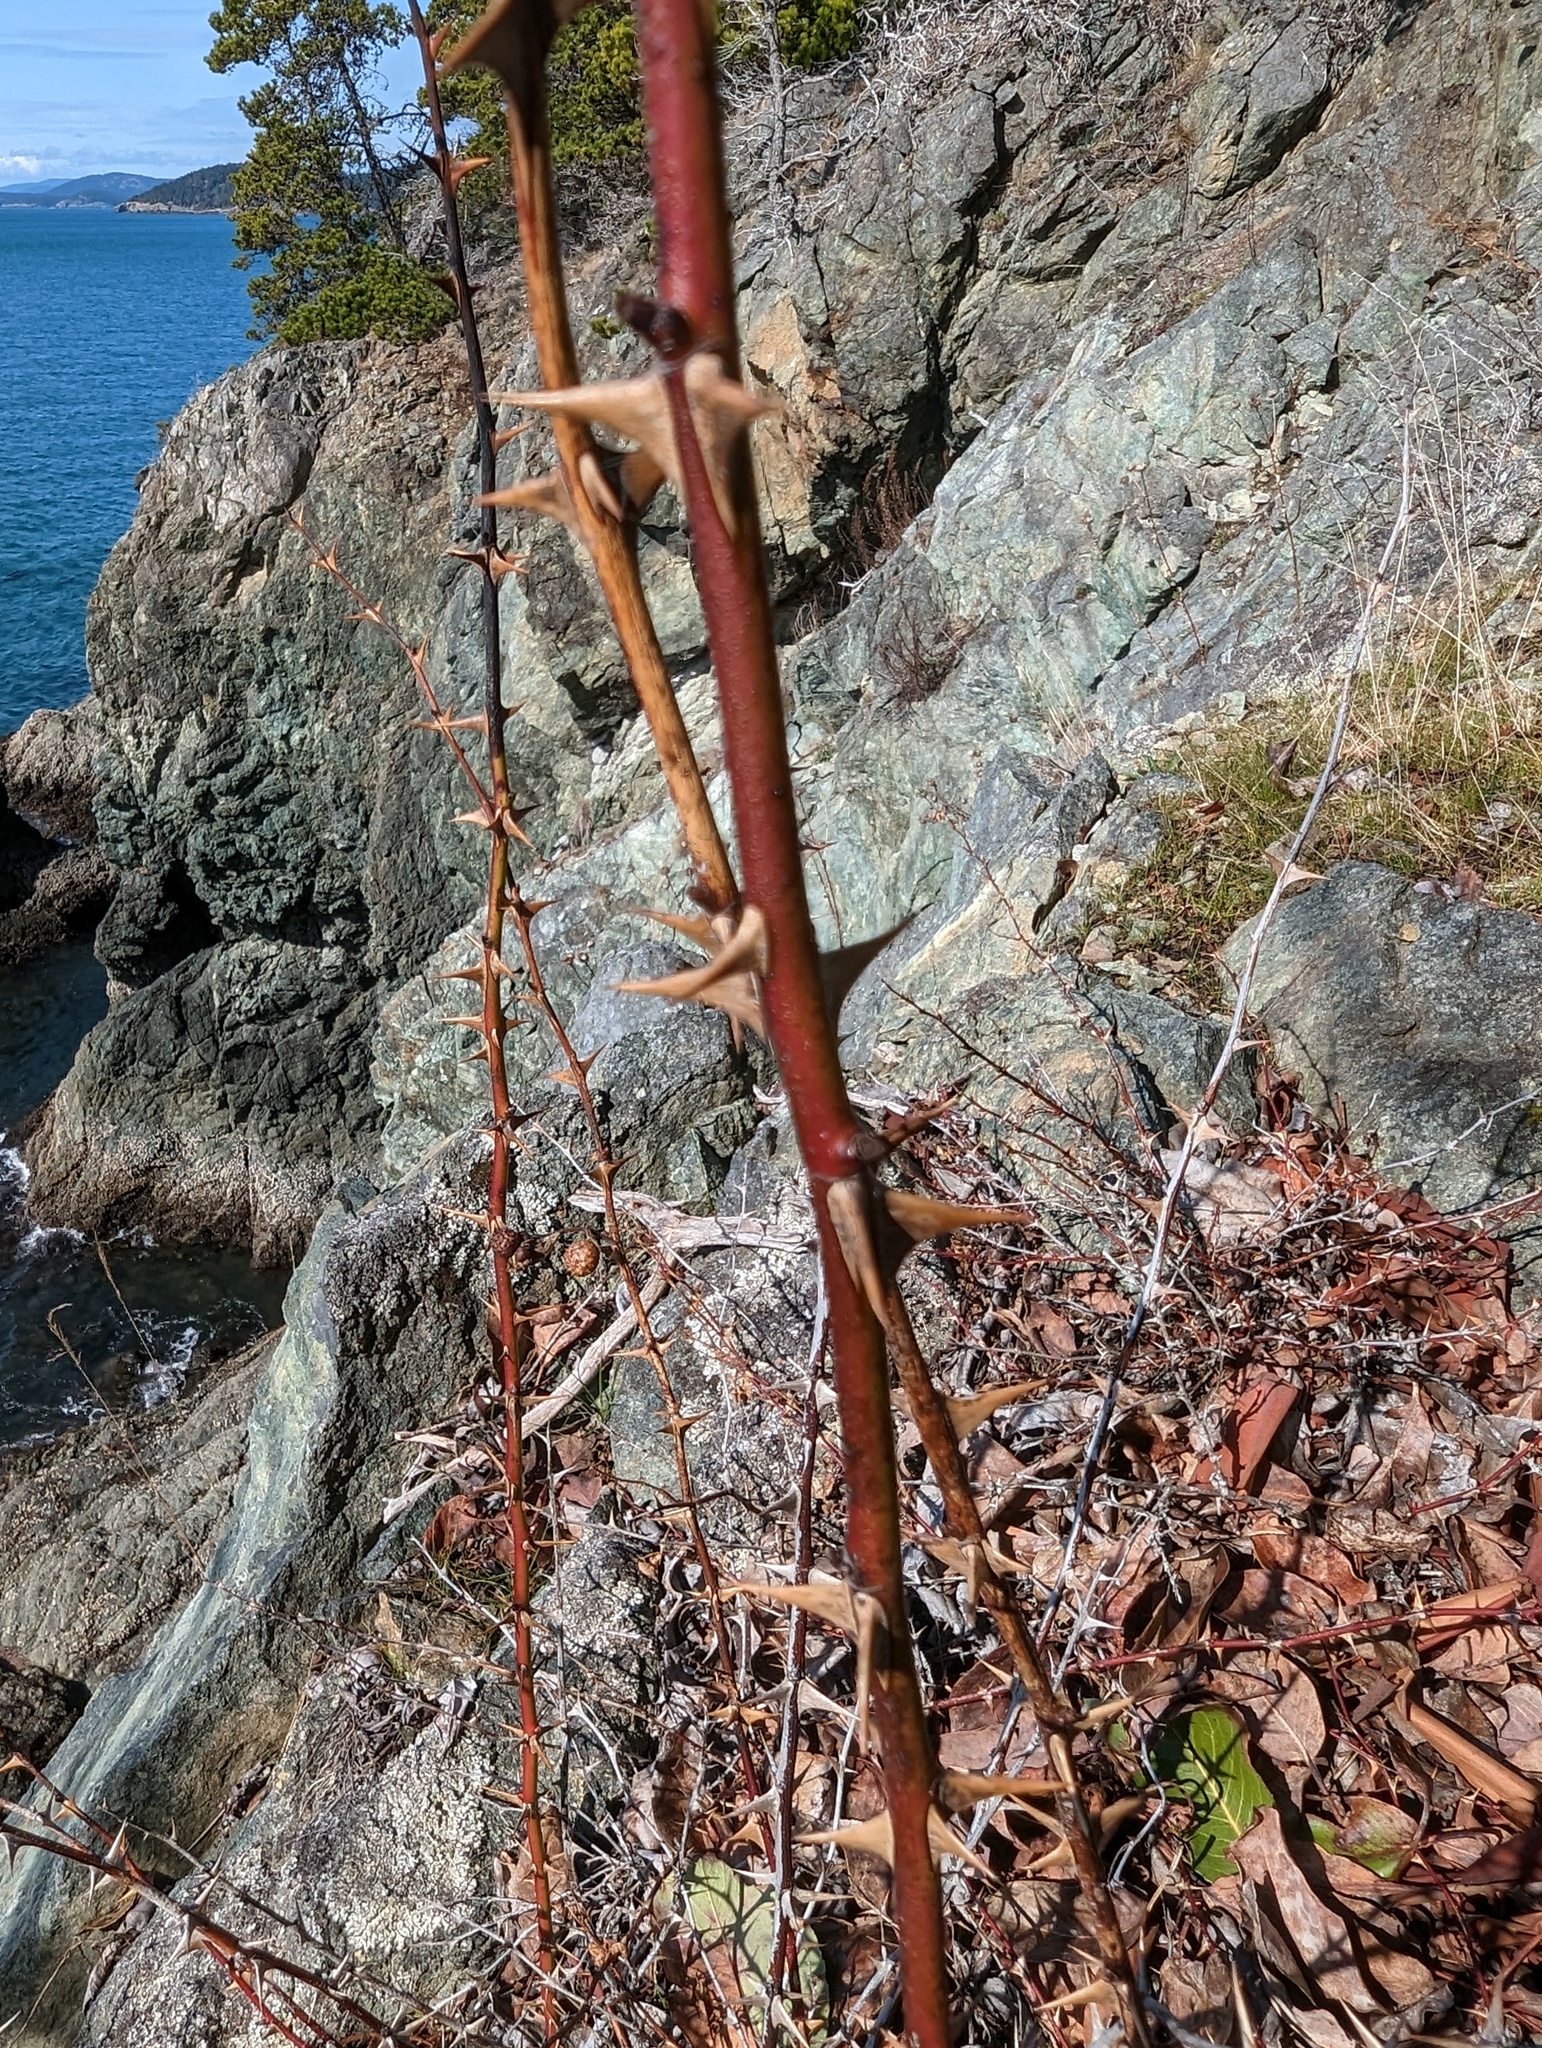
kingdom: Animalia
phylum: Arthropoda
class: Insecta
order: Hymenoptera
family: Cynipidae
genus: Diplolepis
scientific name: Diplolepis polita
